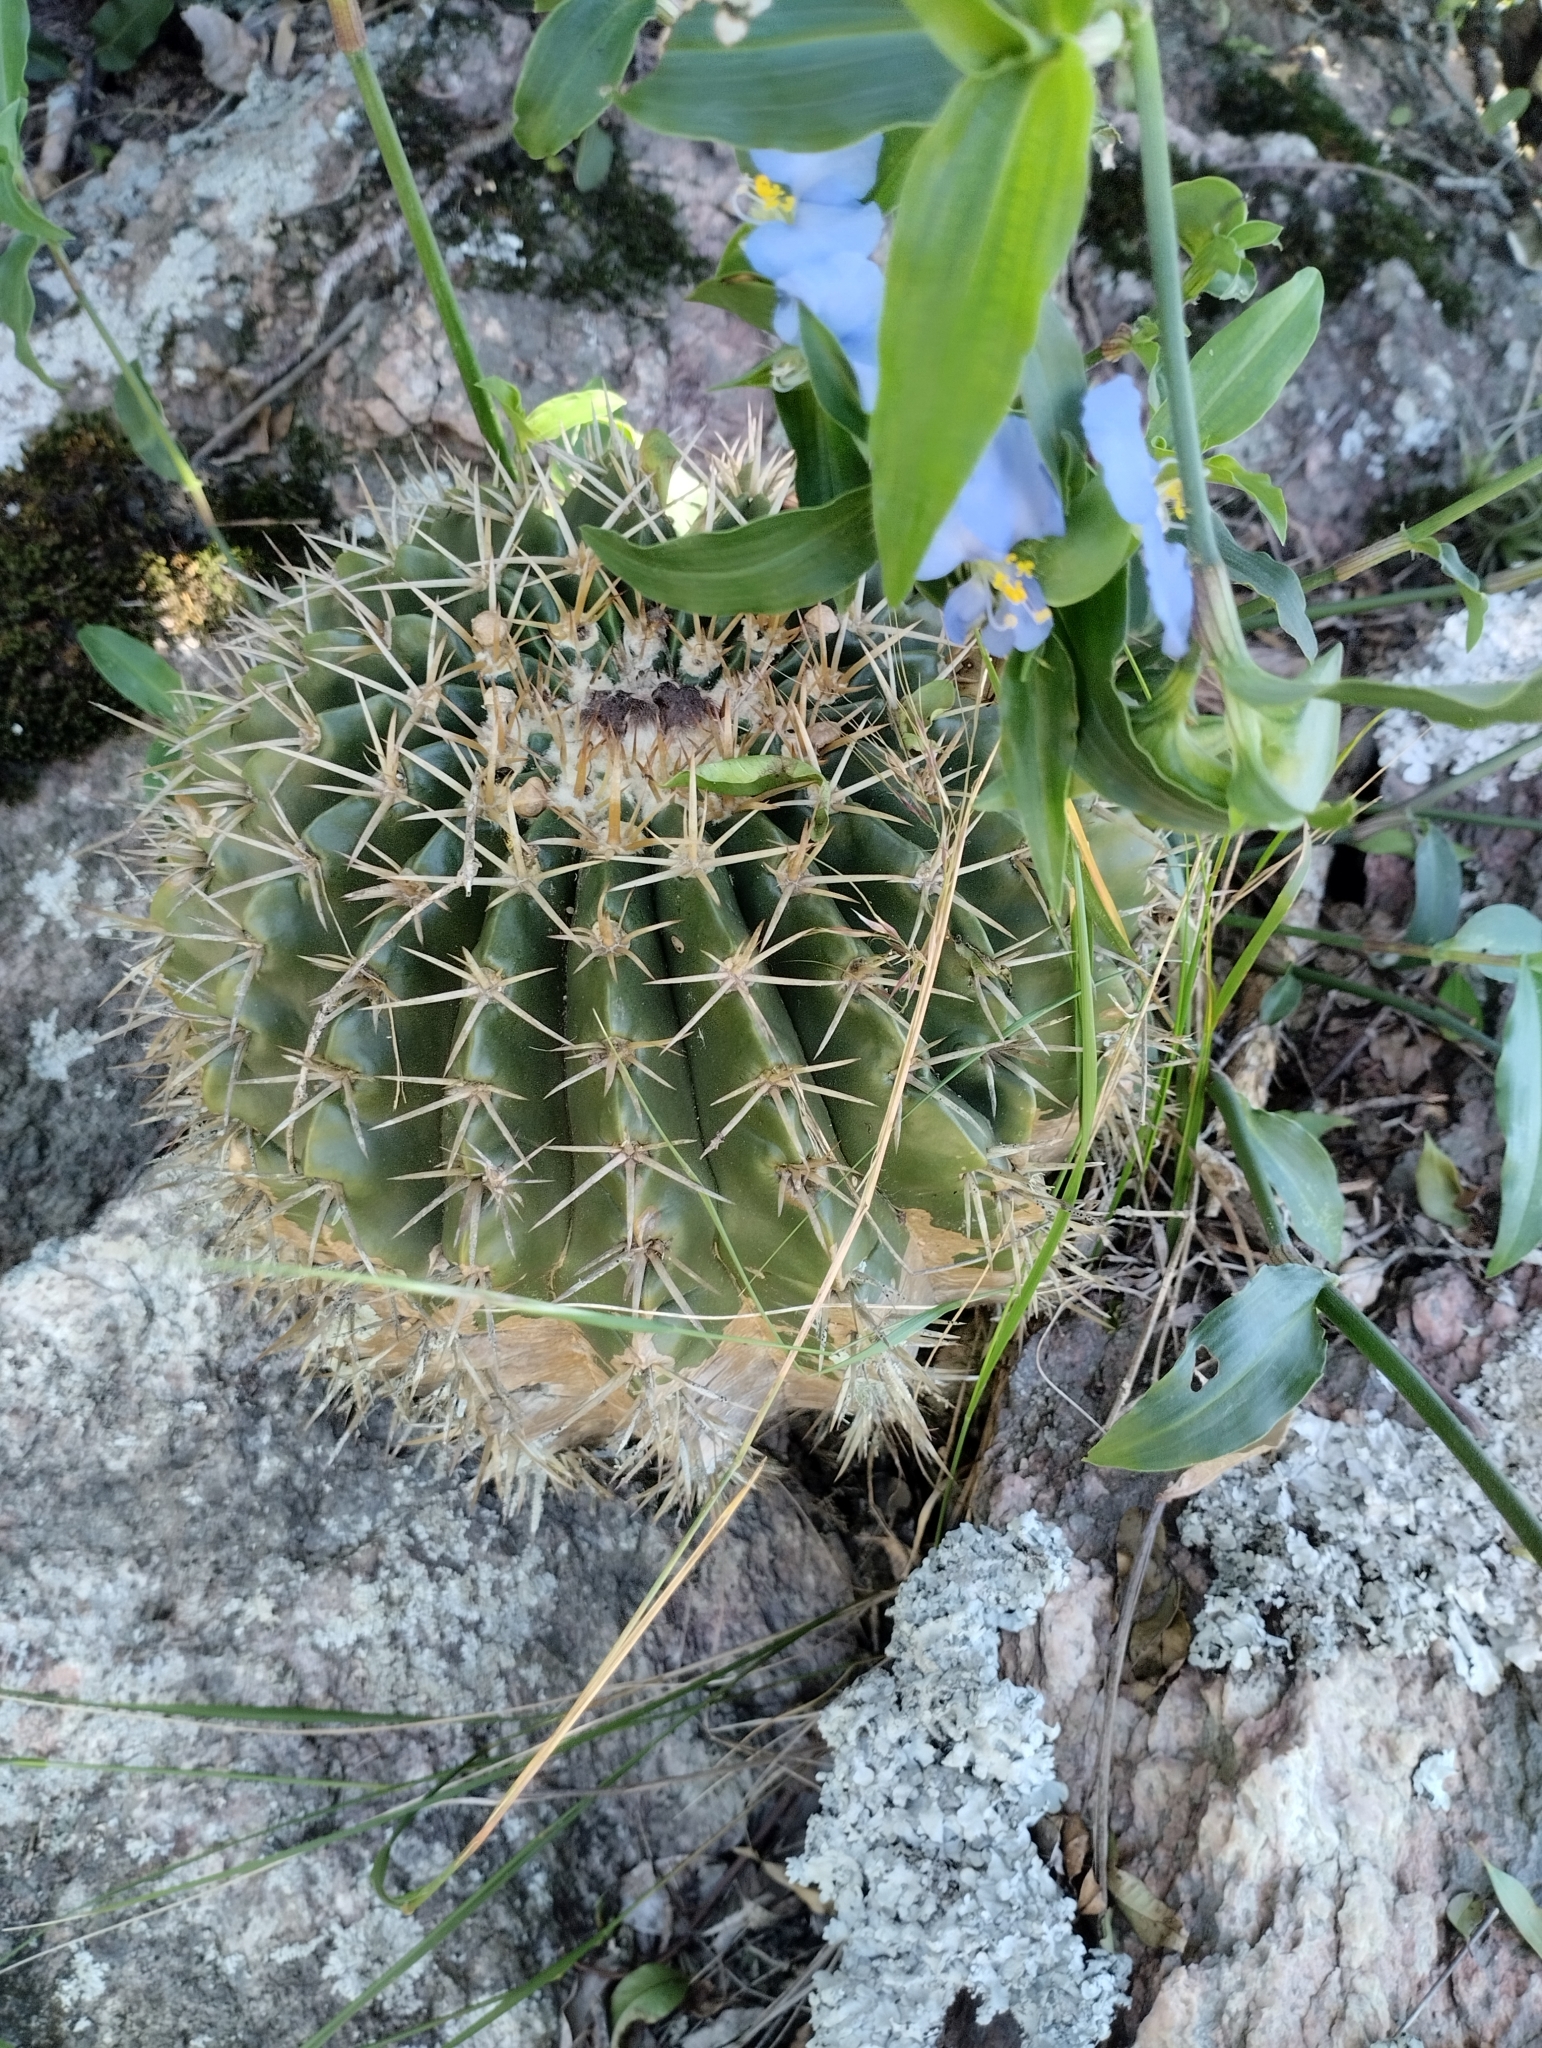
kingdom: Plantae
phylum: Tracheophyta
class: Magnoliopsida
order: Caryophyllales
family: Cactaceae
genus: Parodia
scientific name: Parodia erinacea
